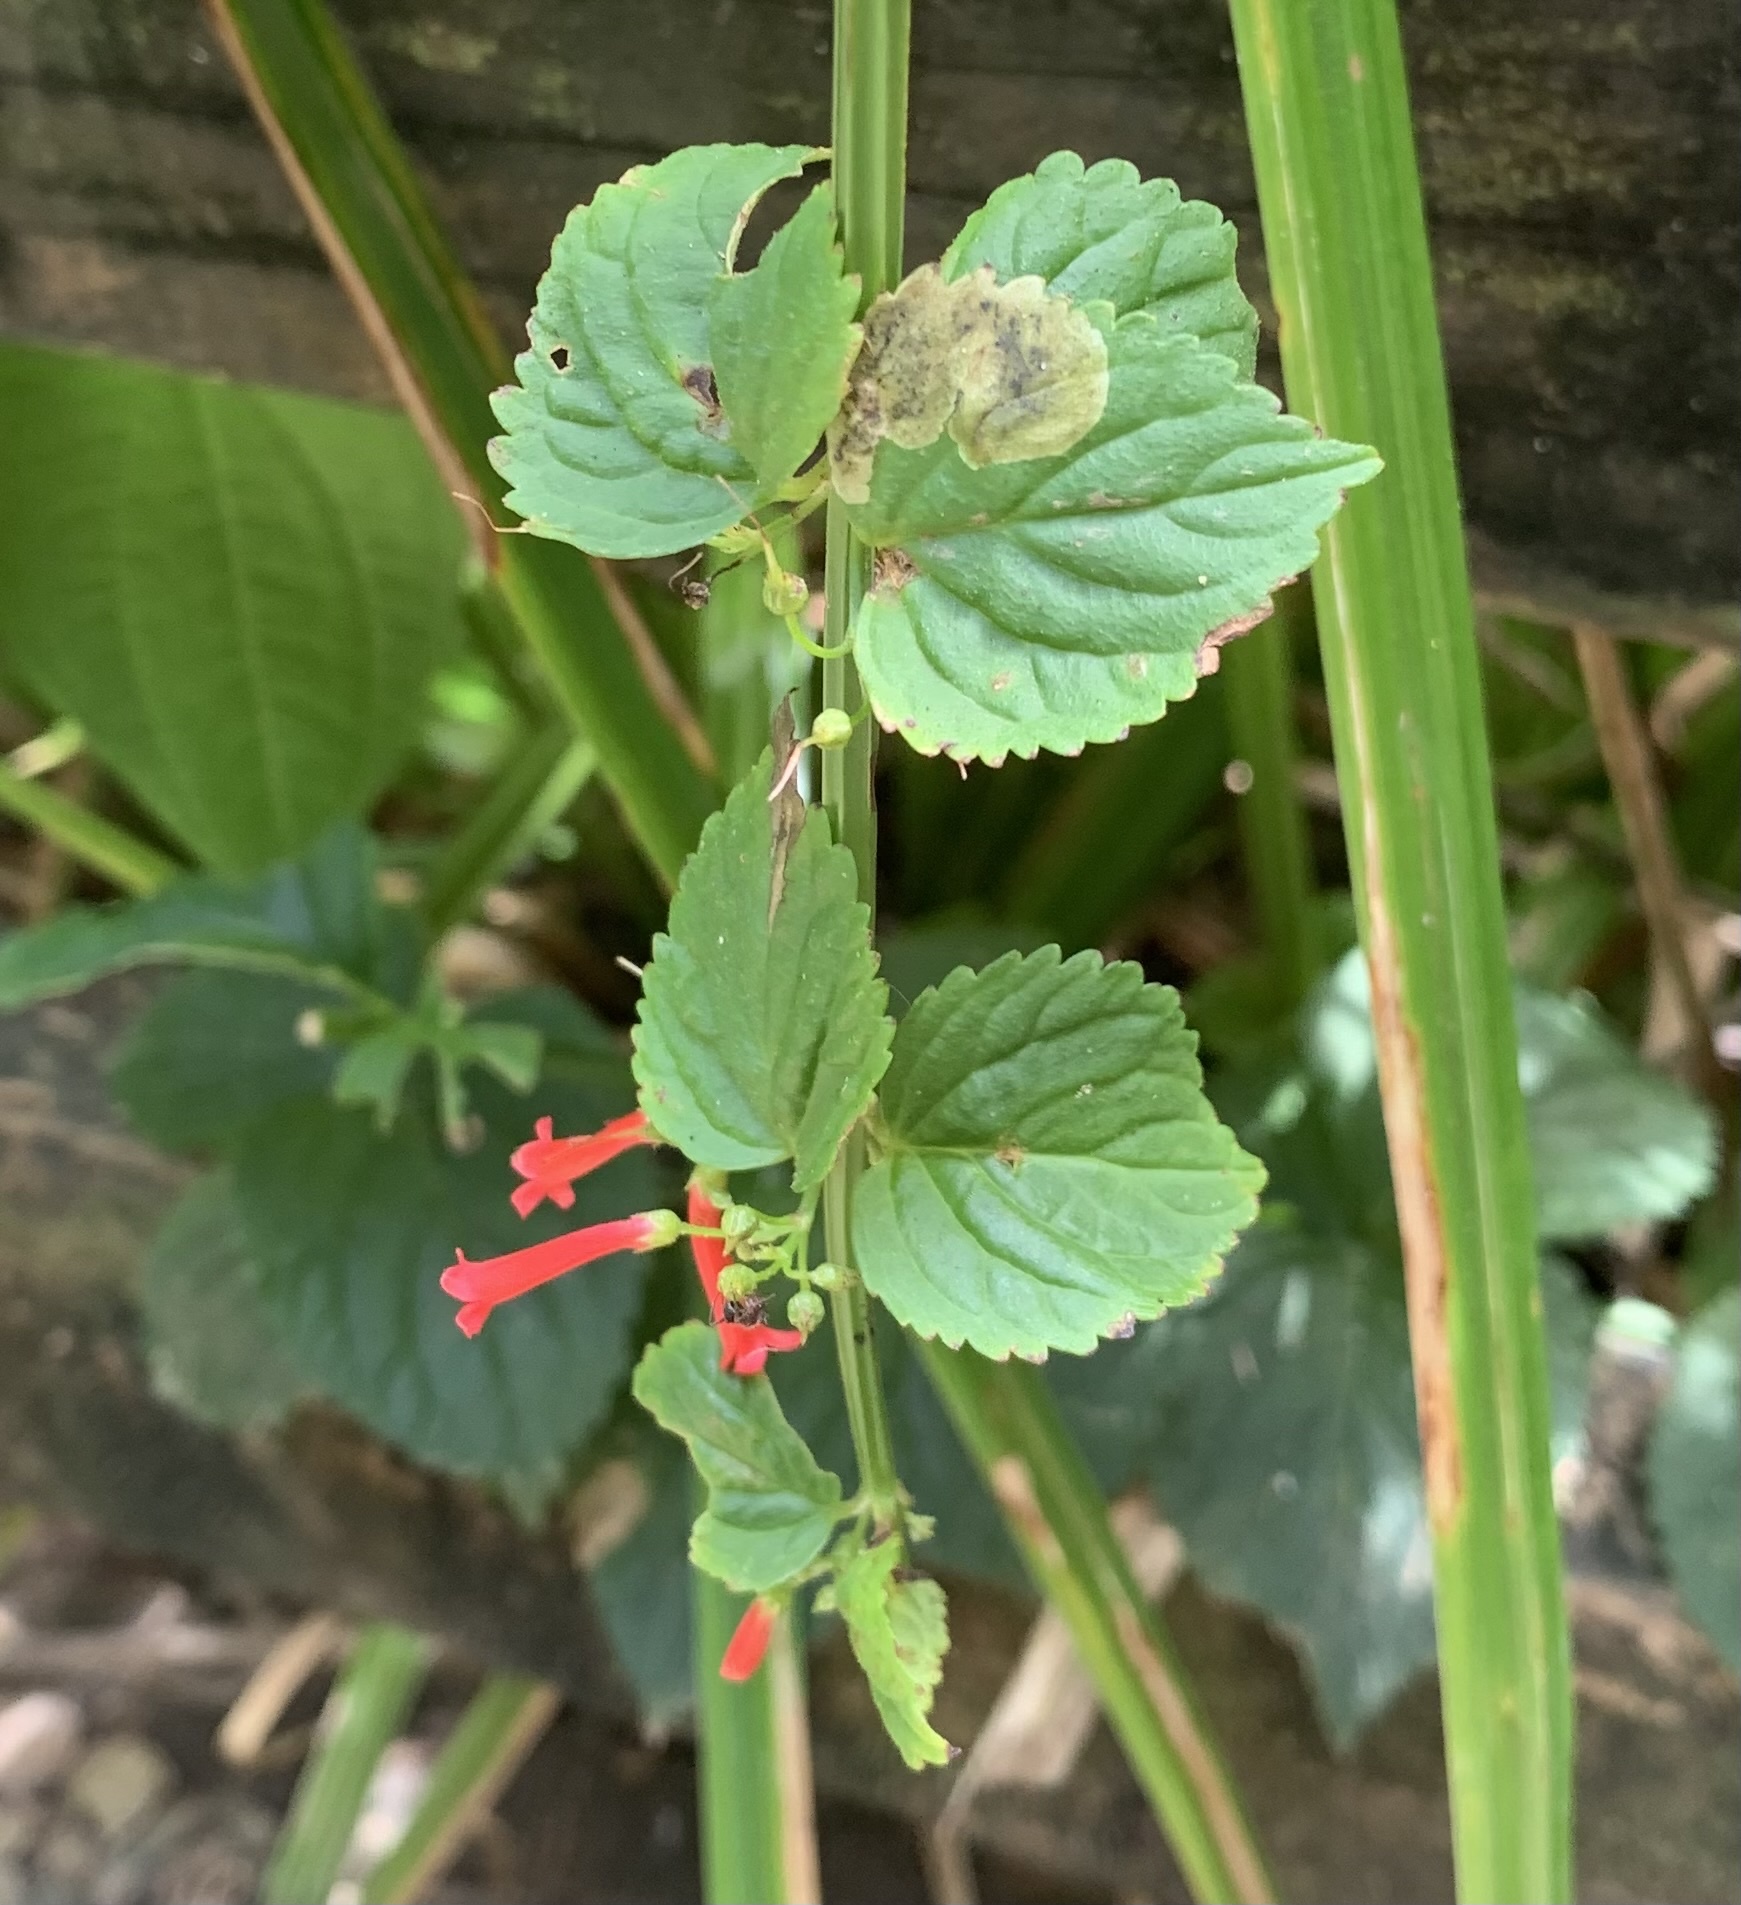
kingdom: Plantae
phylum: Tracheophyta
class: Magnoliopsida
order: Lamiales
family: Plantaginaceae
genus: Russelia
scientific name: Russelia sarmentosa
